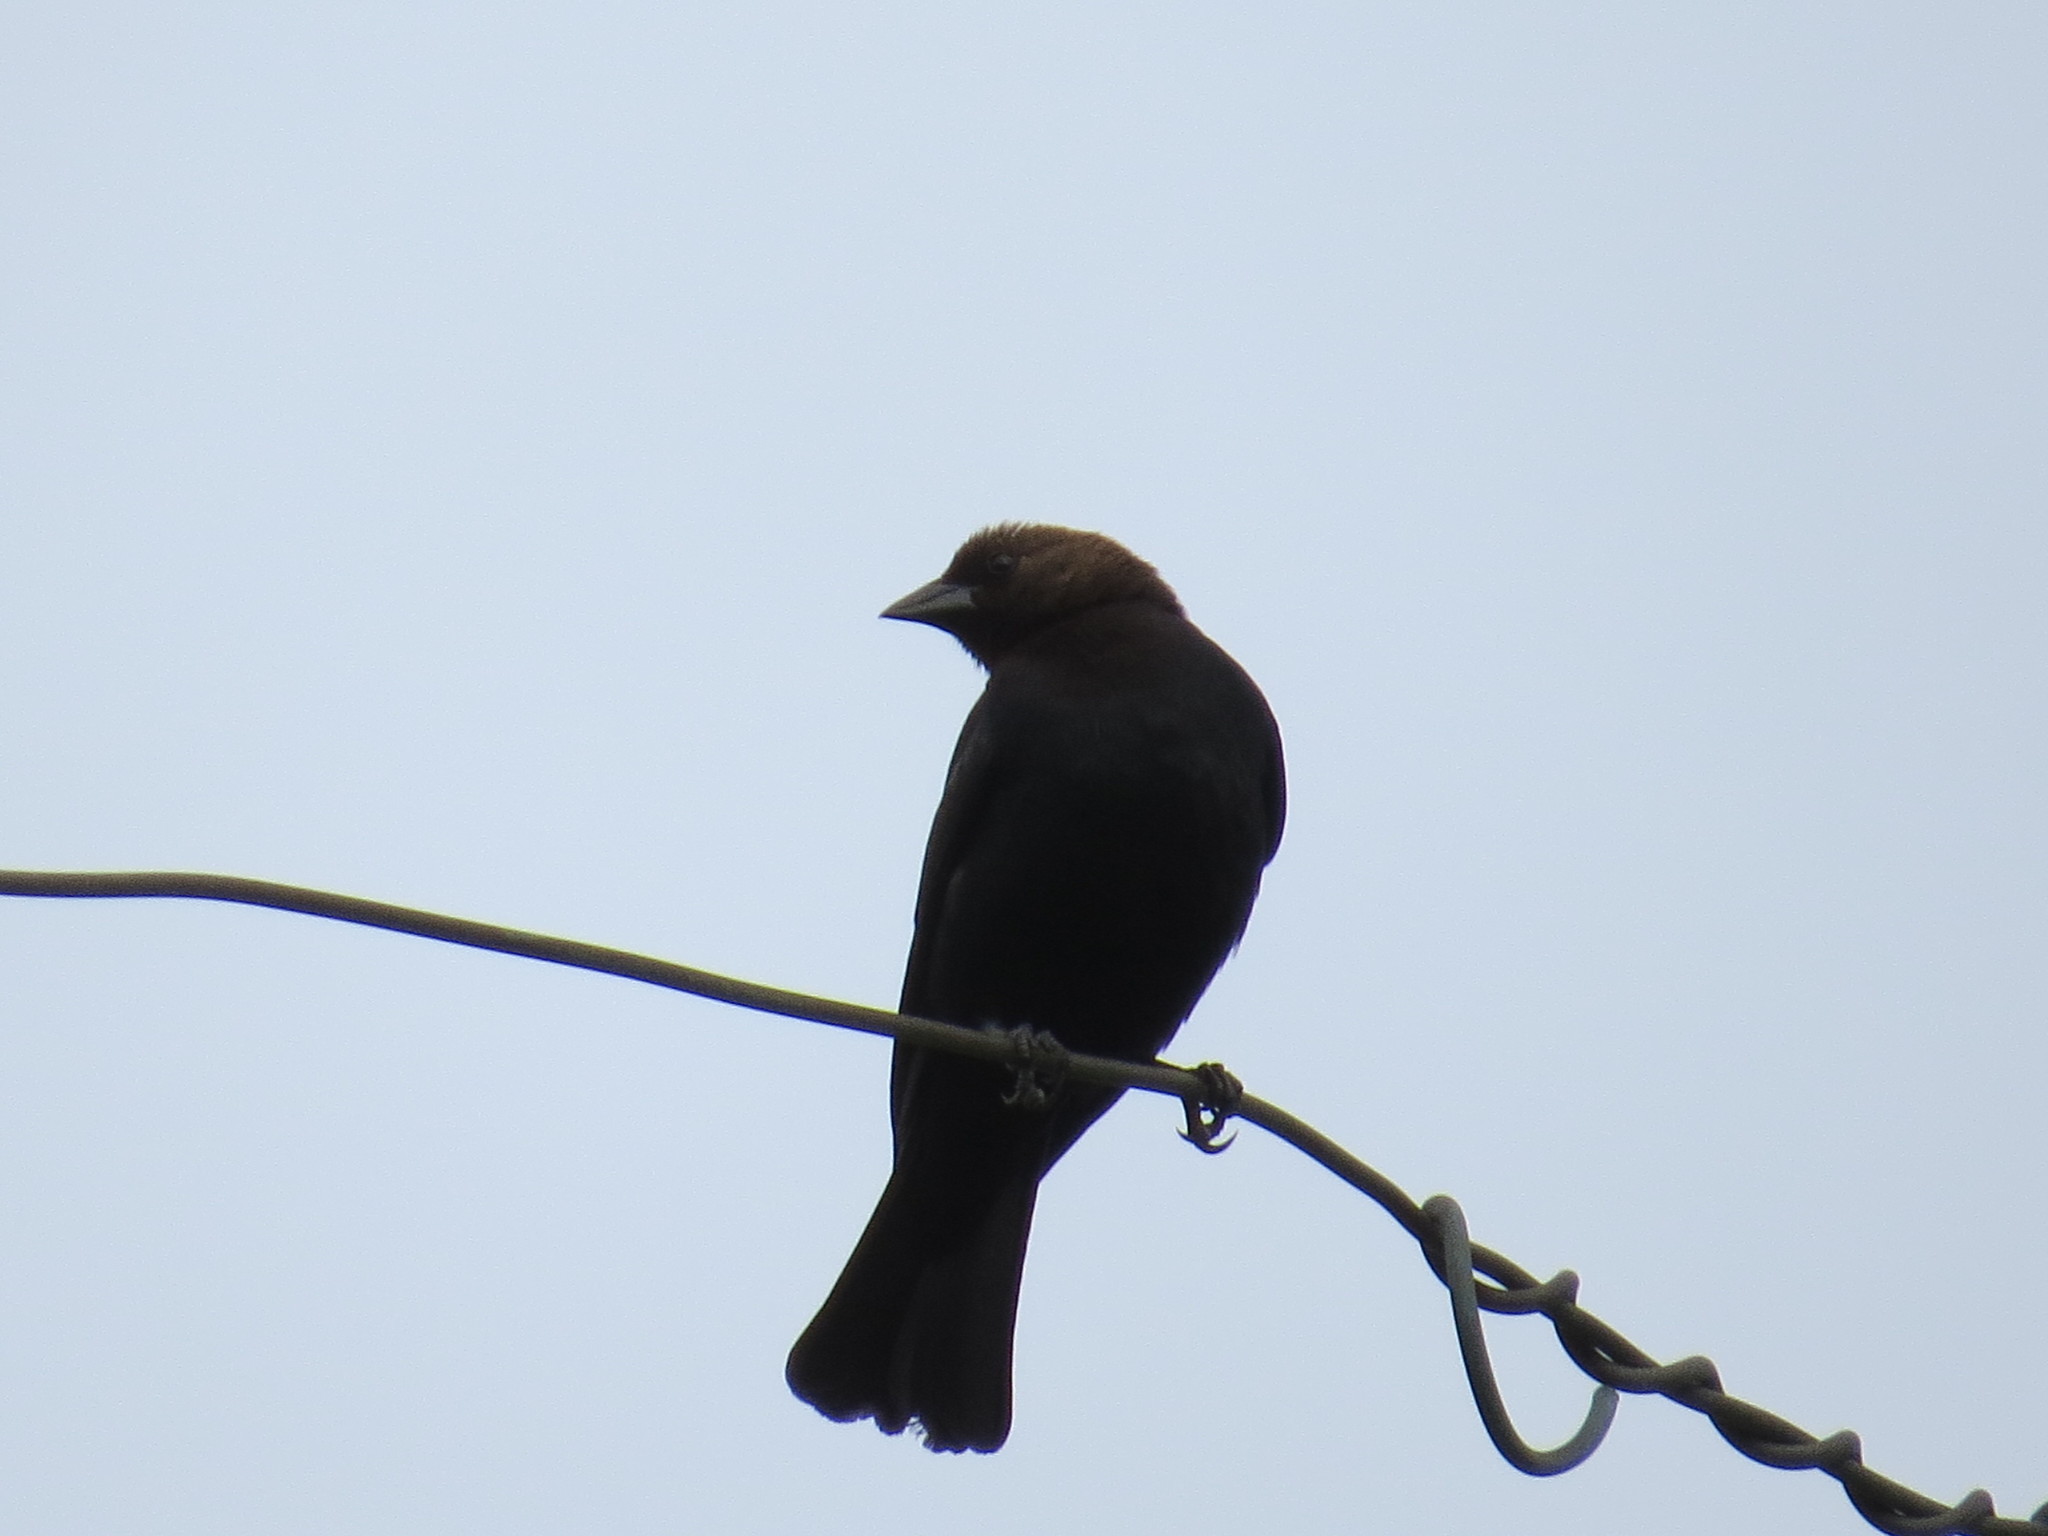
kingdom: Animalia
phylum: Chordata
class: Aves
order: Passeriformes
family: Icteridae
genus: Molothrus
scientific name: Molothrus ater
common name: Brown-headed cowbird
